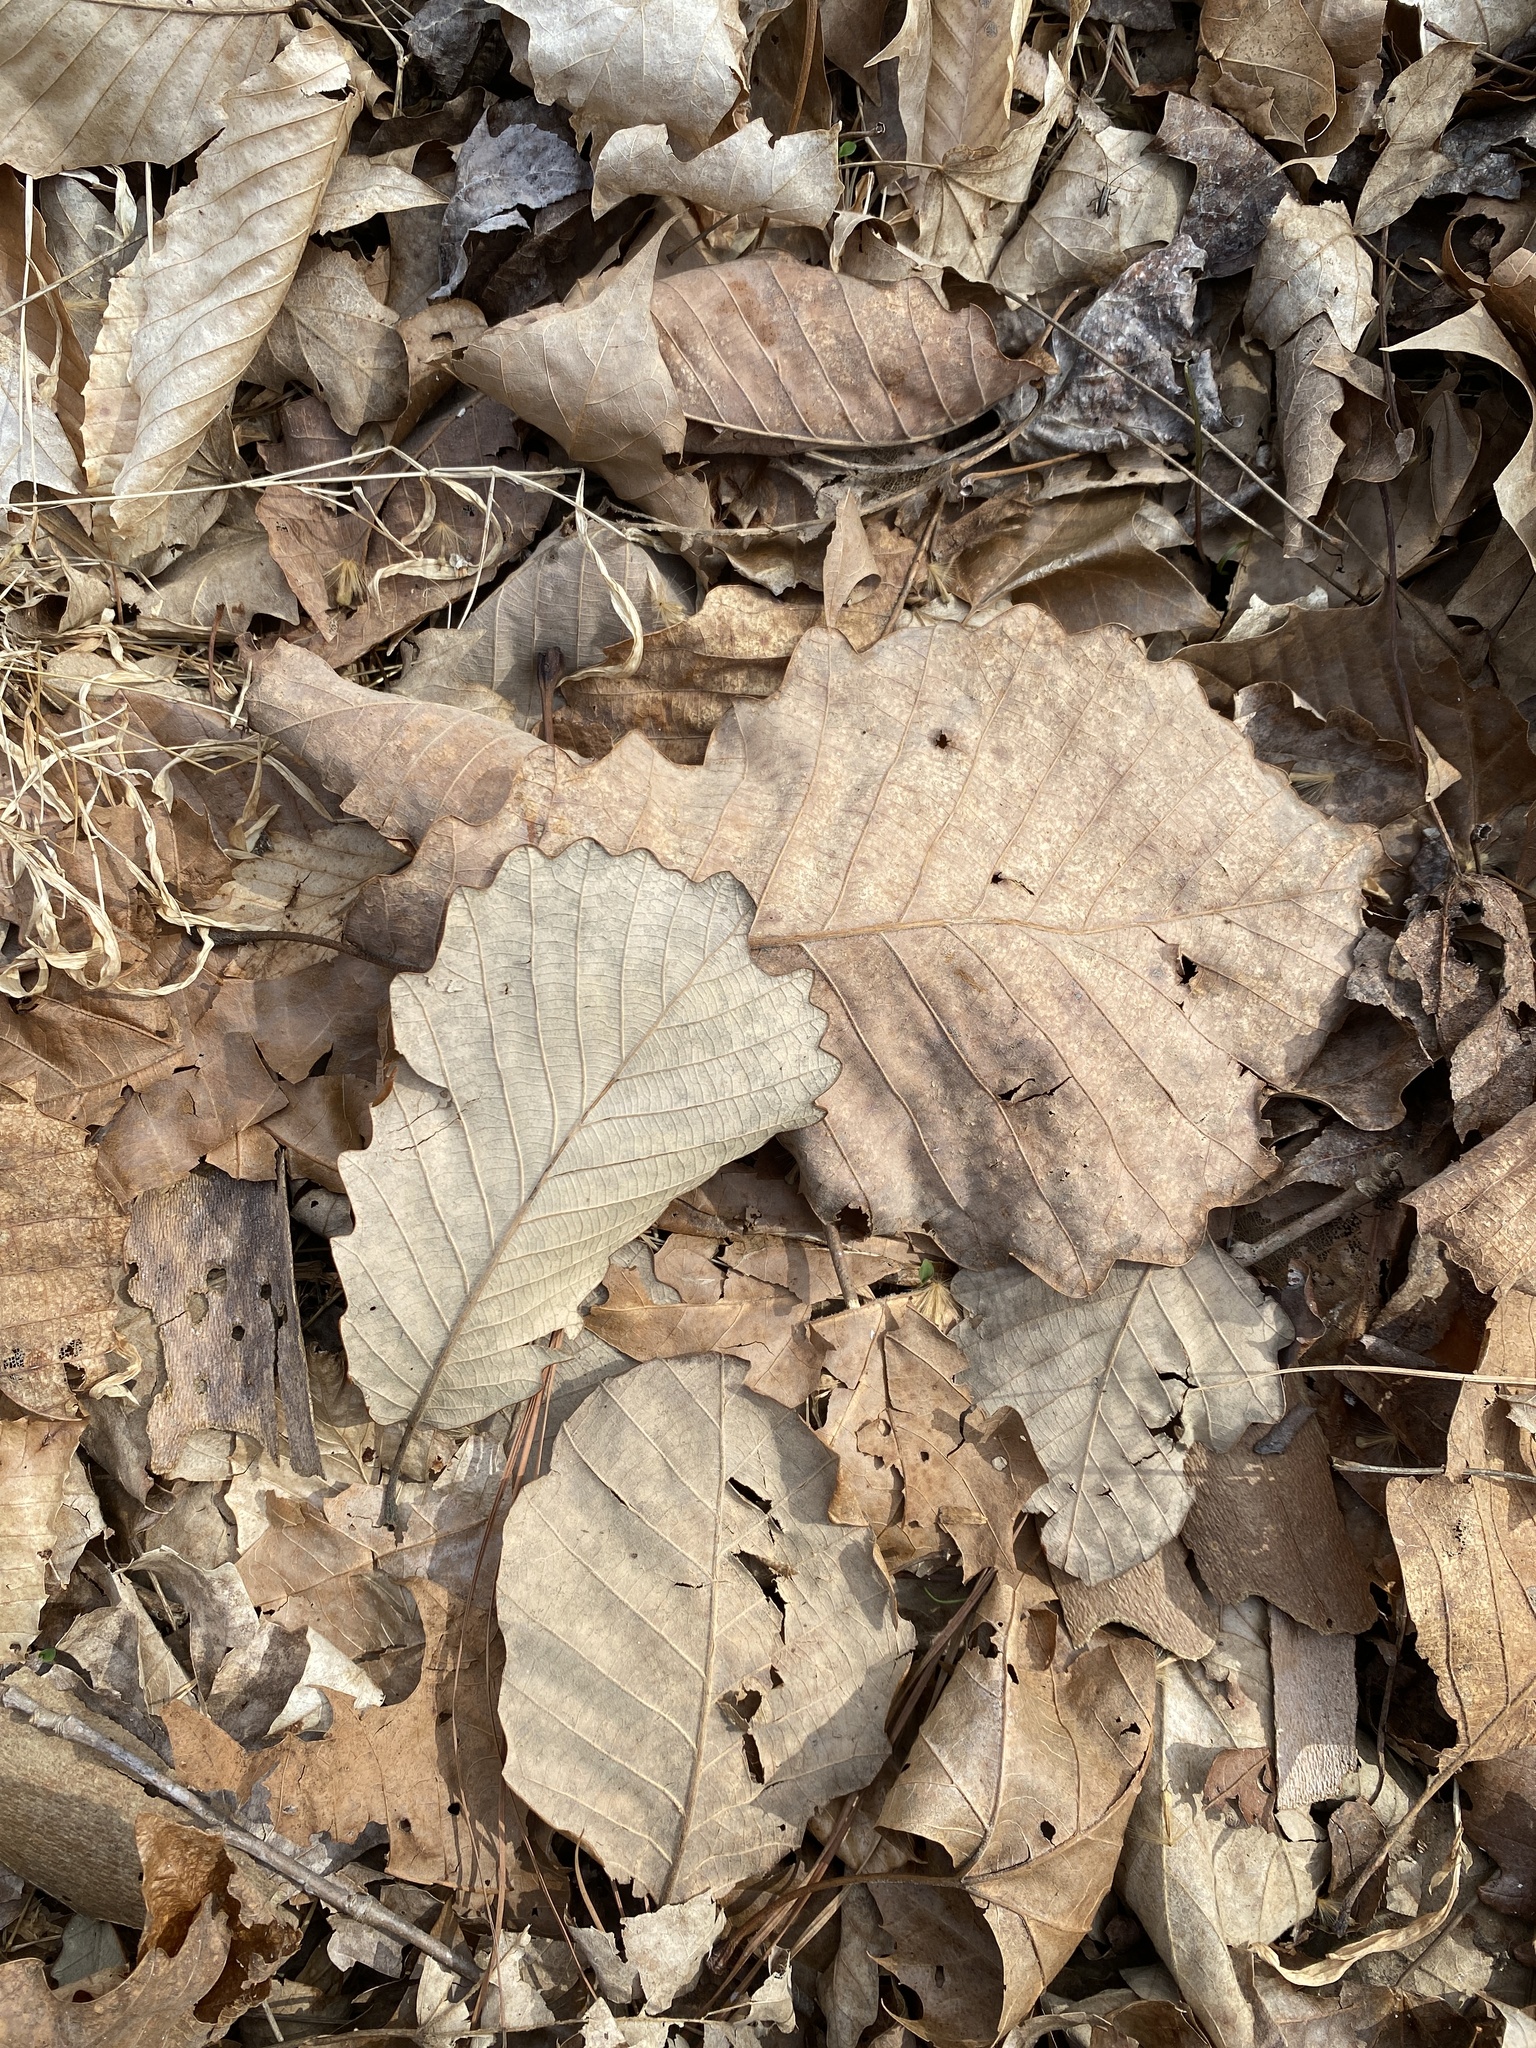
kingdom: Plantae
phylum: Tracheophyta
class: Magnoliopsida
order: Fagales
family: Fagaceae
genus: Quercus
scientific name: Quercus michauxii
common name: Swamp chestnut oak
